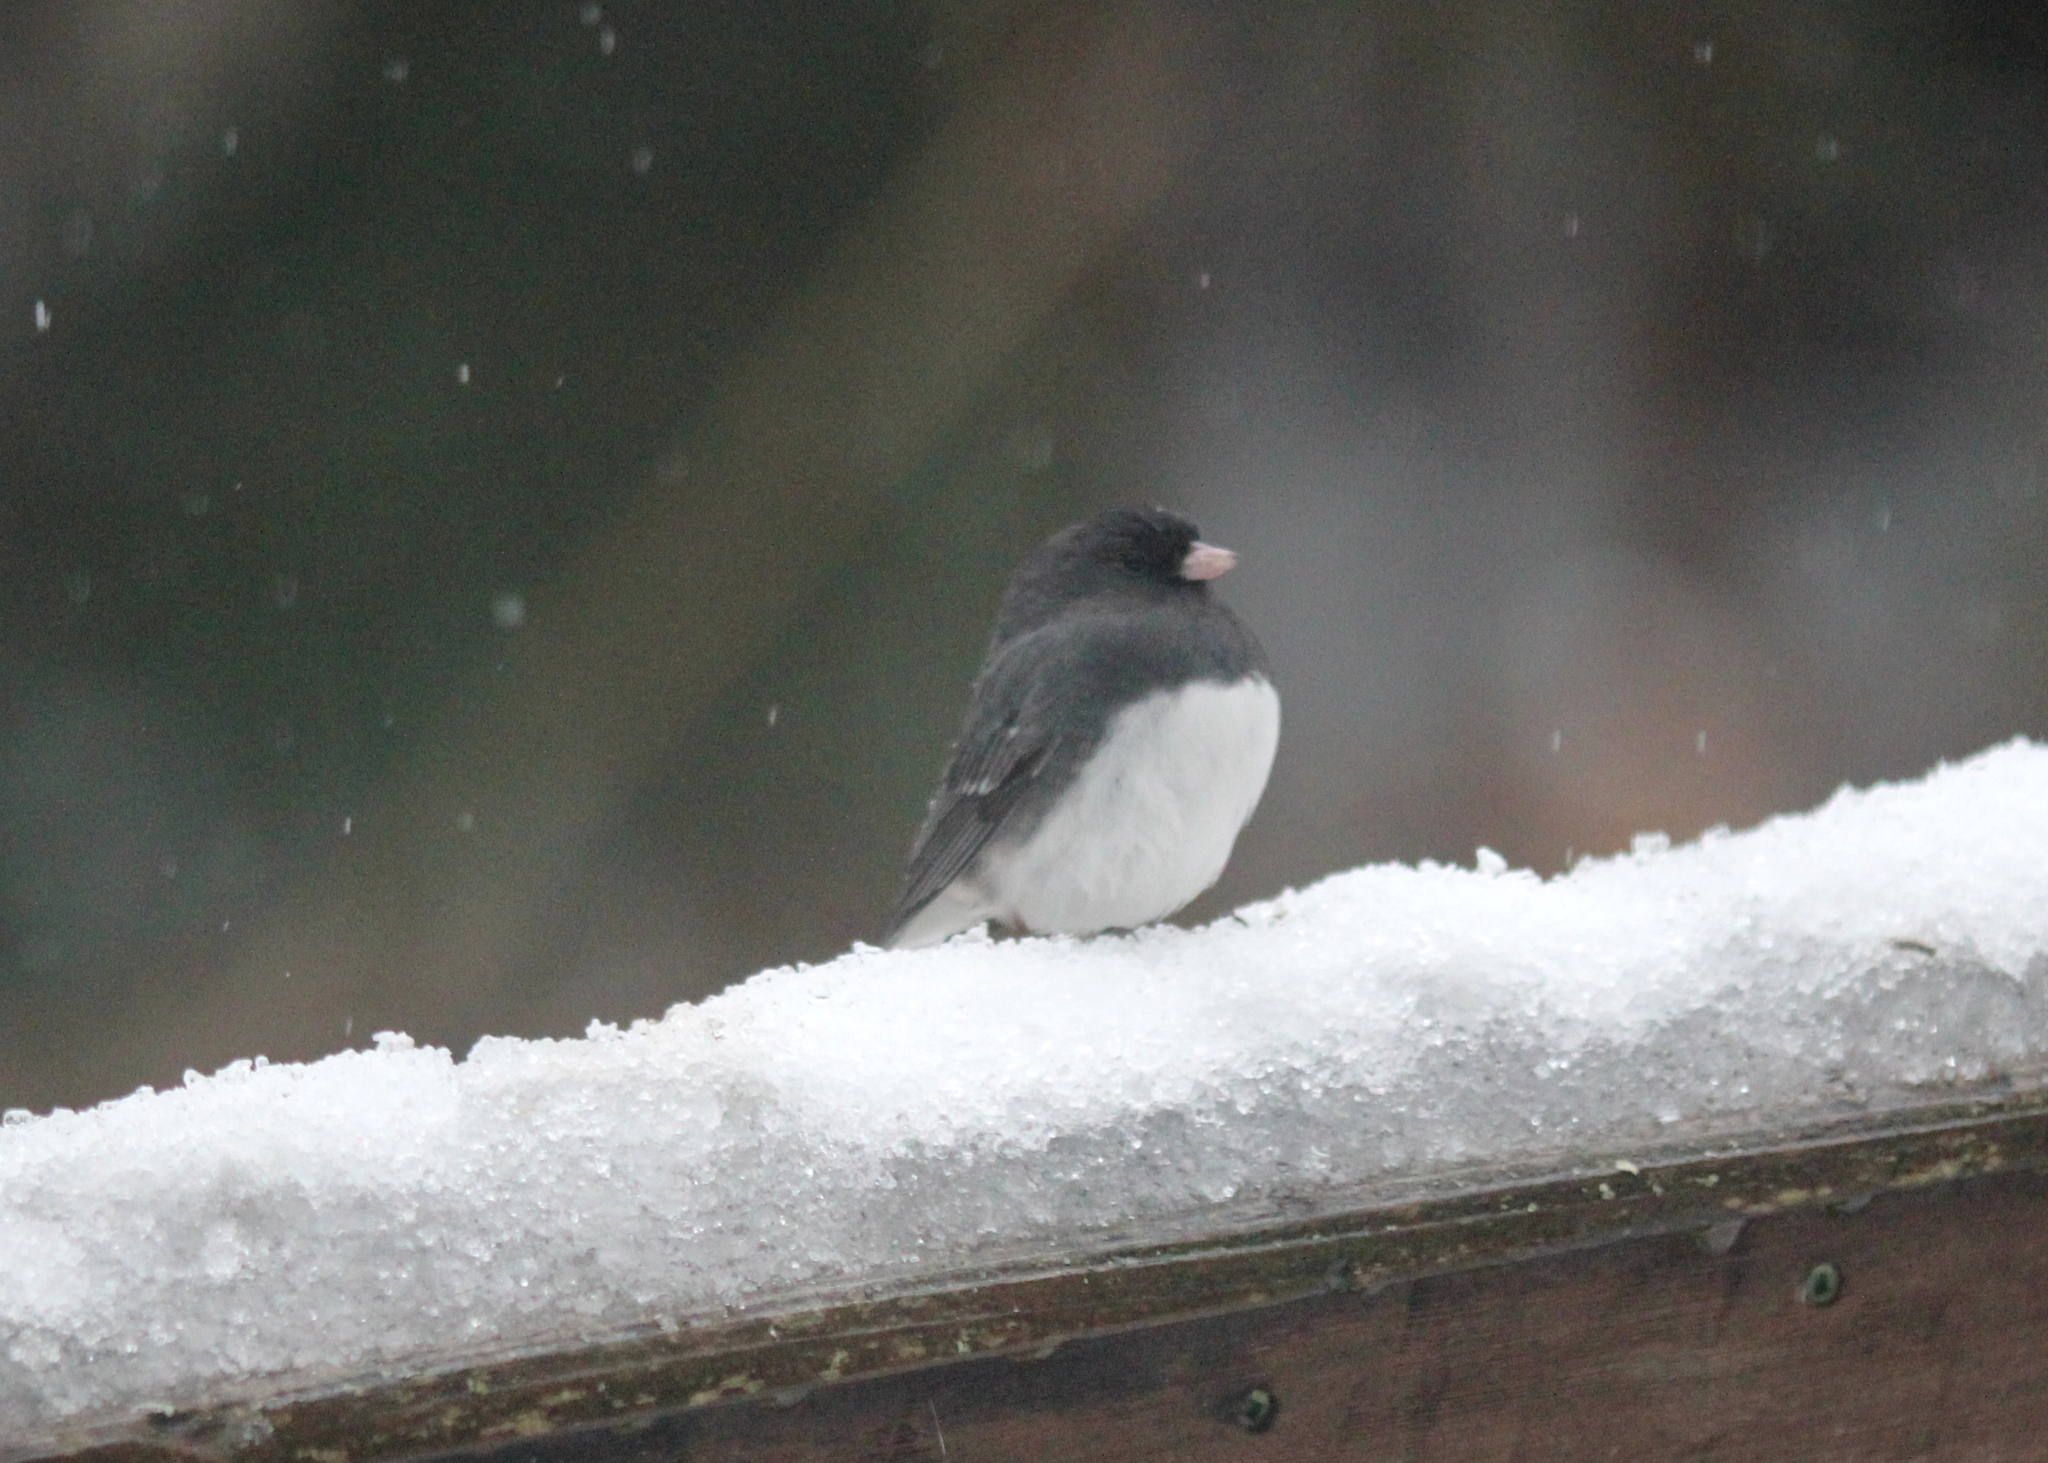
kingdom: Animalia
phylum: Chordata
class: Aves
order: Passeriformes
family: Passerellidae
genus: Junco
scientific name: Junco hyemalis
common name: Dark-eyed junco
